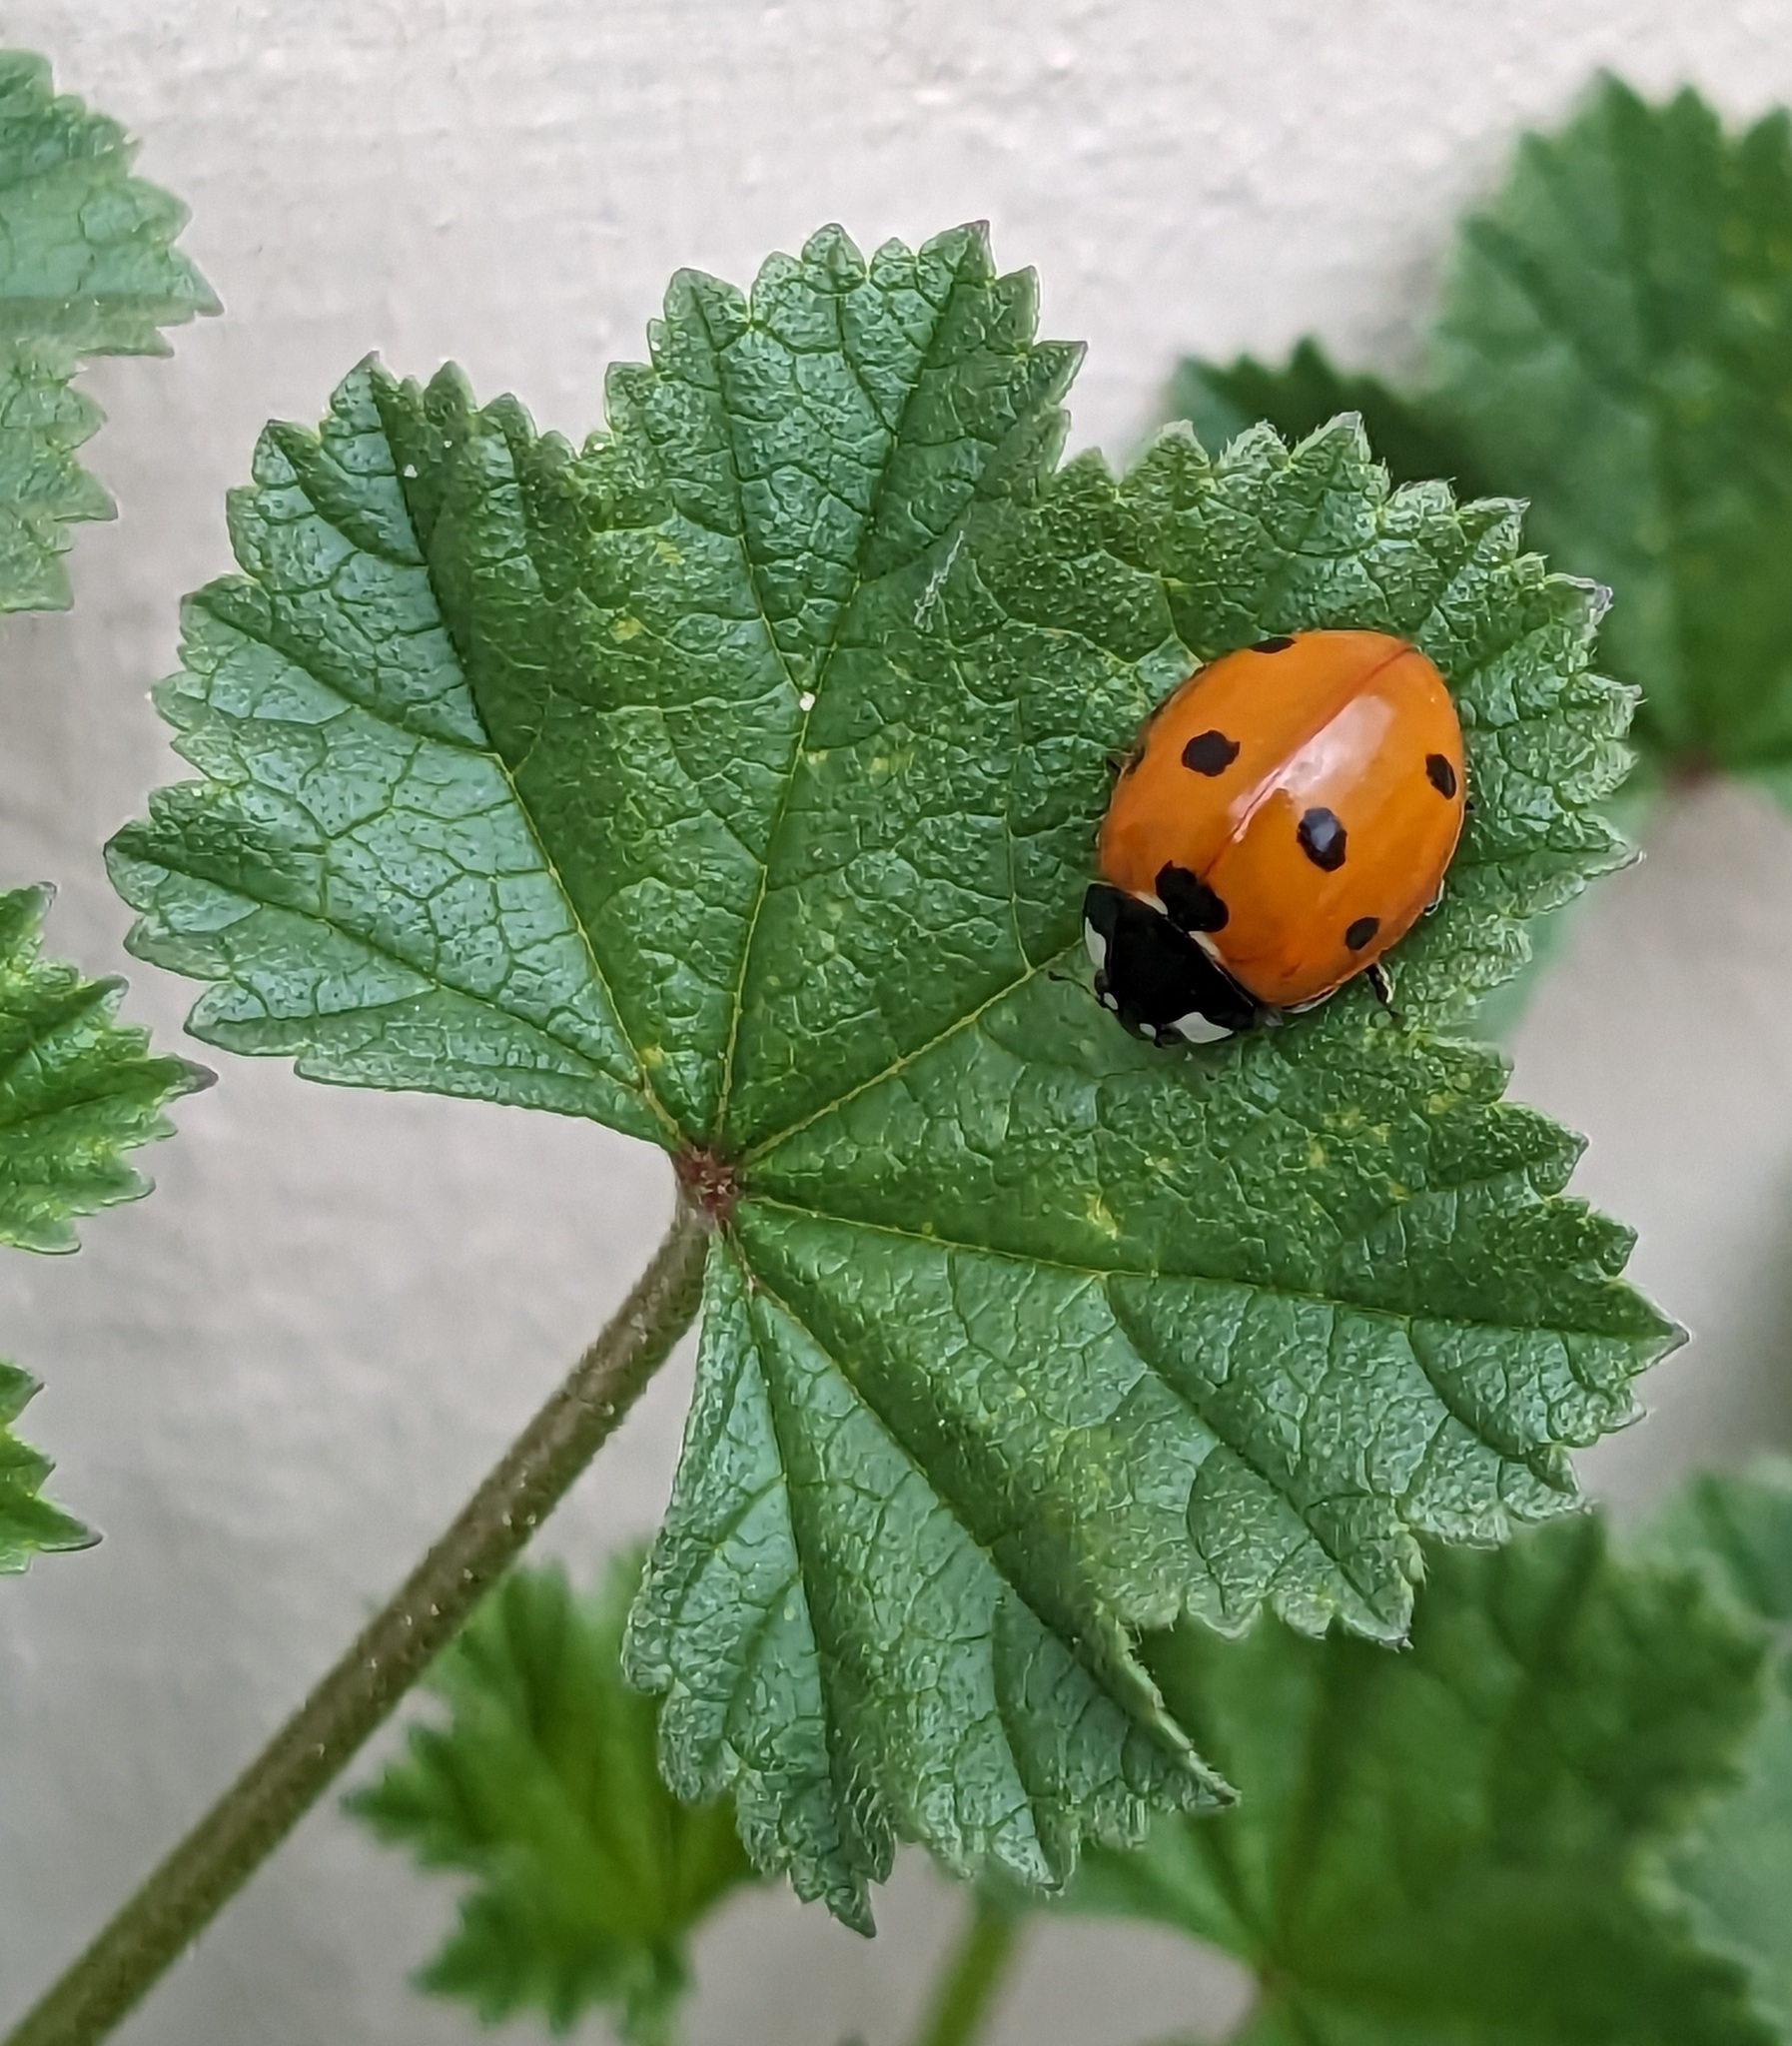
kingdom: Animalia
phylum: Arthropoda
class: Insecta
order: Coleoptera
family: Coccinellidae
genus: Coccinella
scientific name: Coccinella septempunctata
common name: Sevenspotted lady beetle
